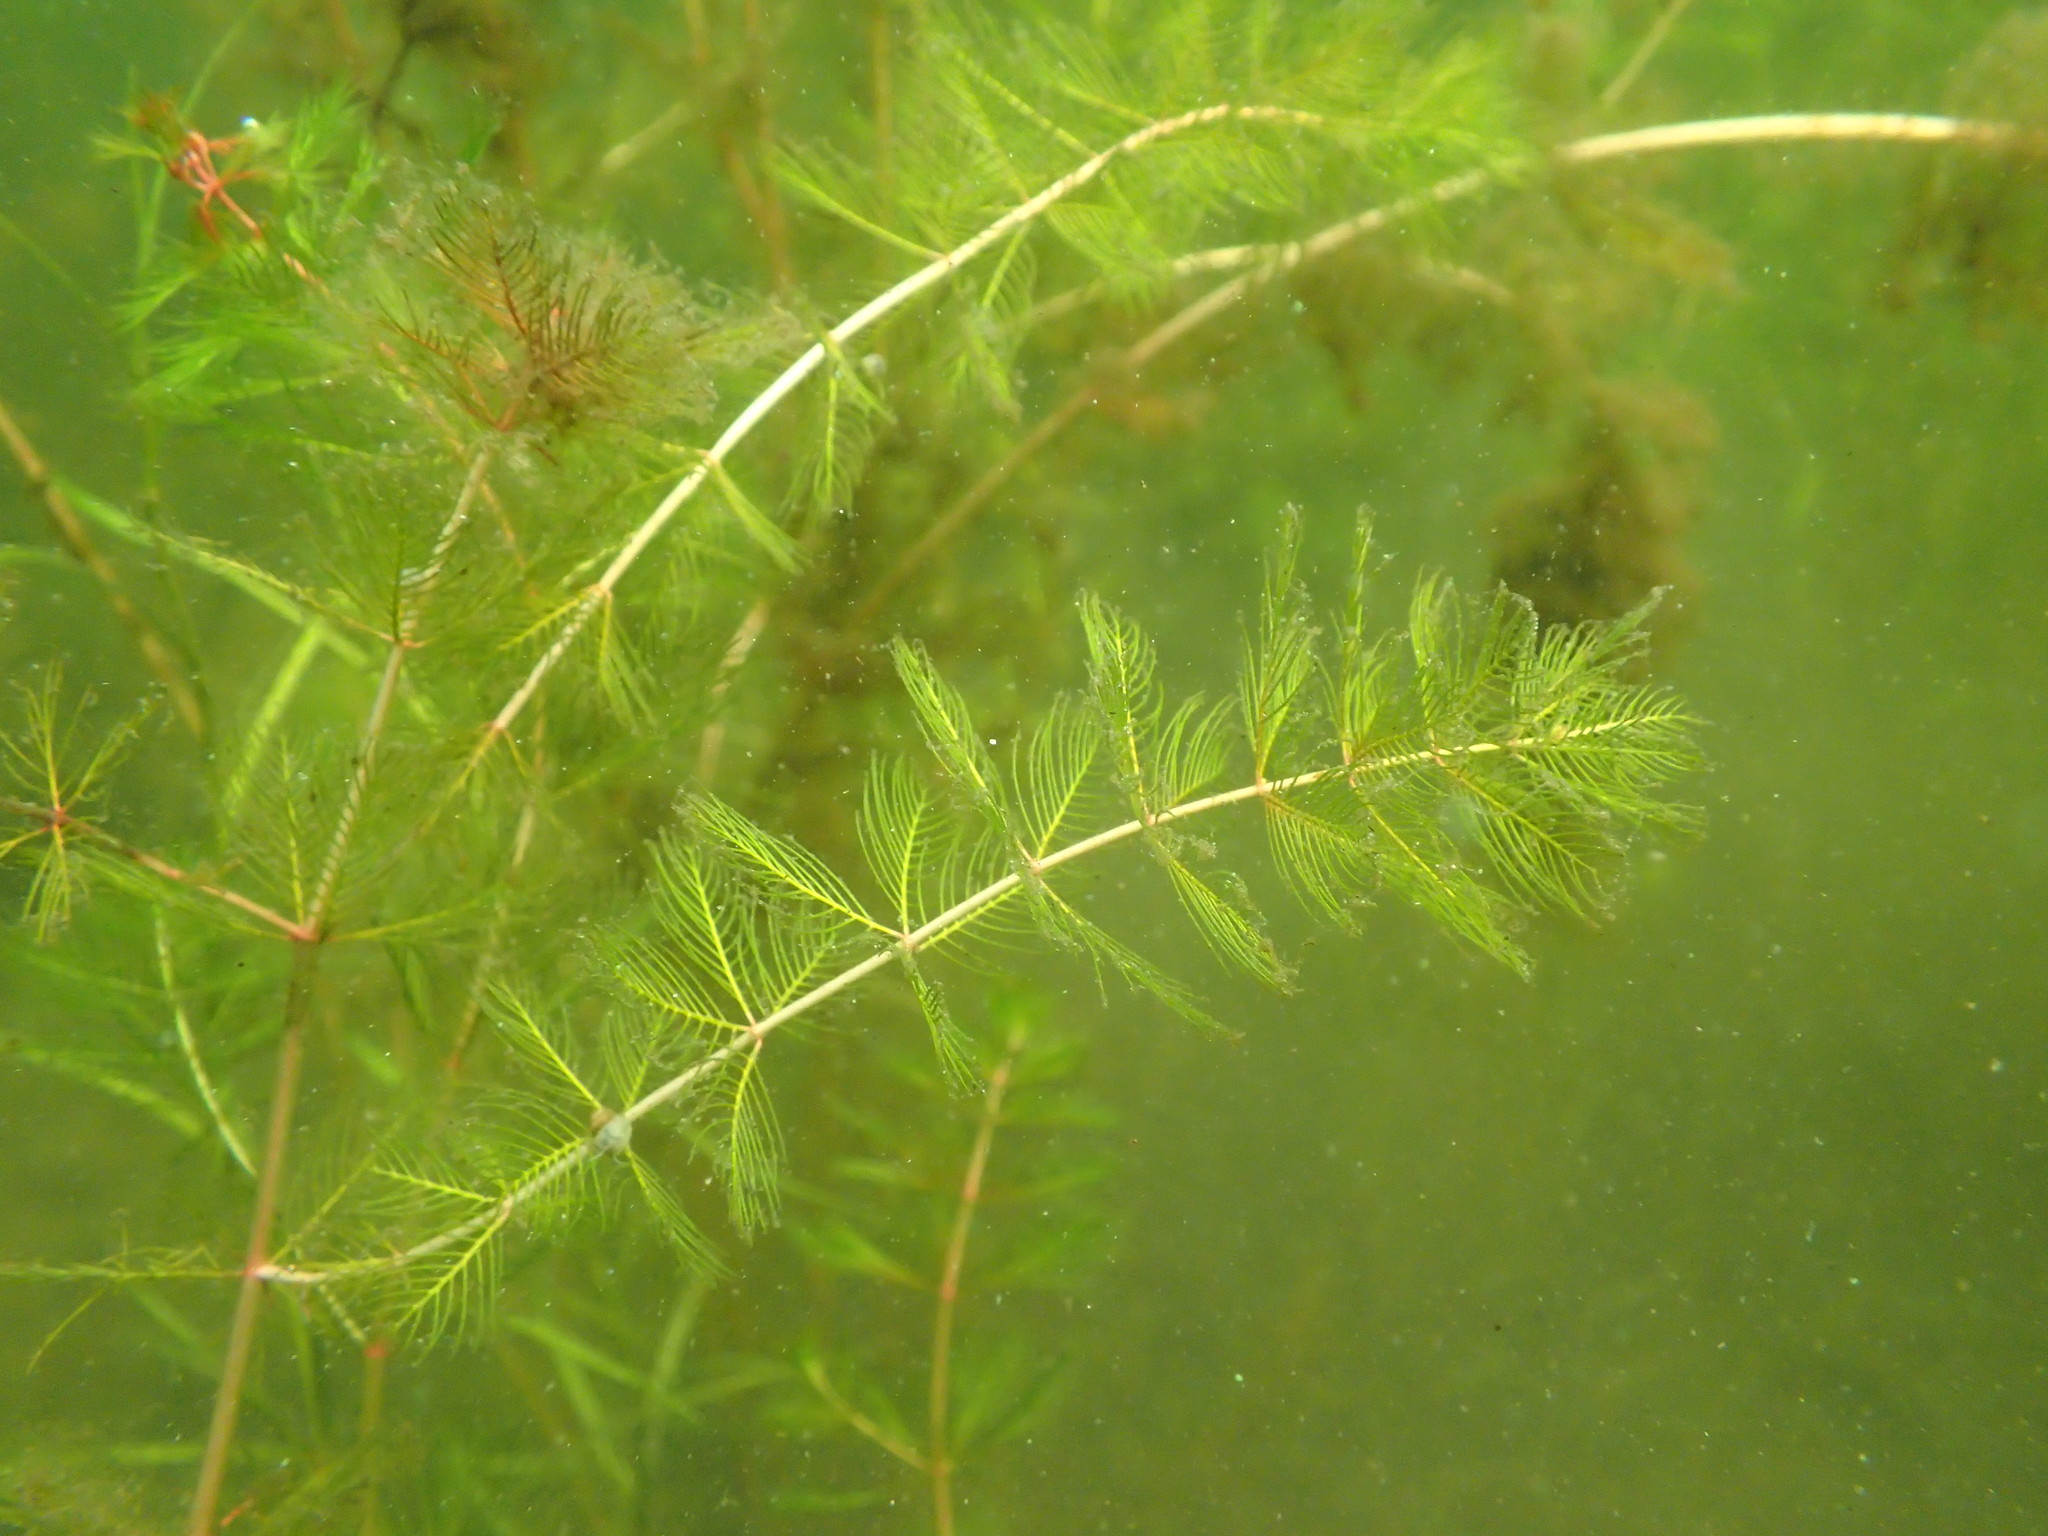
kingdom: Plantae
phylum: Tracheophyta
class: Magnoliopsida
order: Saxifragales
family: Haloragaceae
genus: Myriophyllum
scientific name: Myriophyllum spicatum
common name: Spiked water-milfoil
